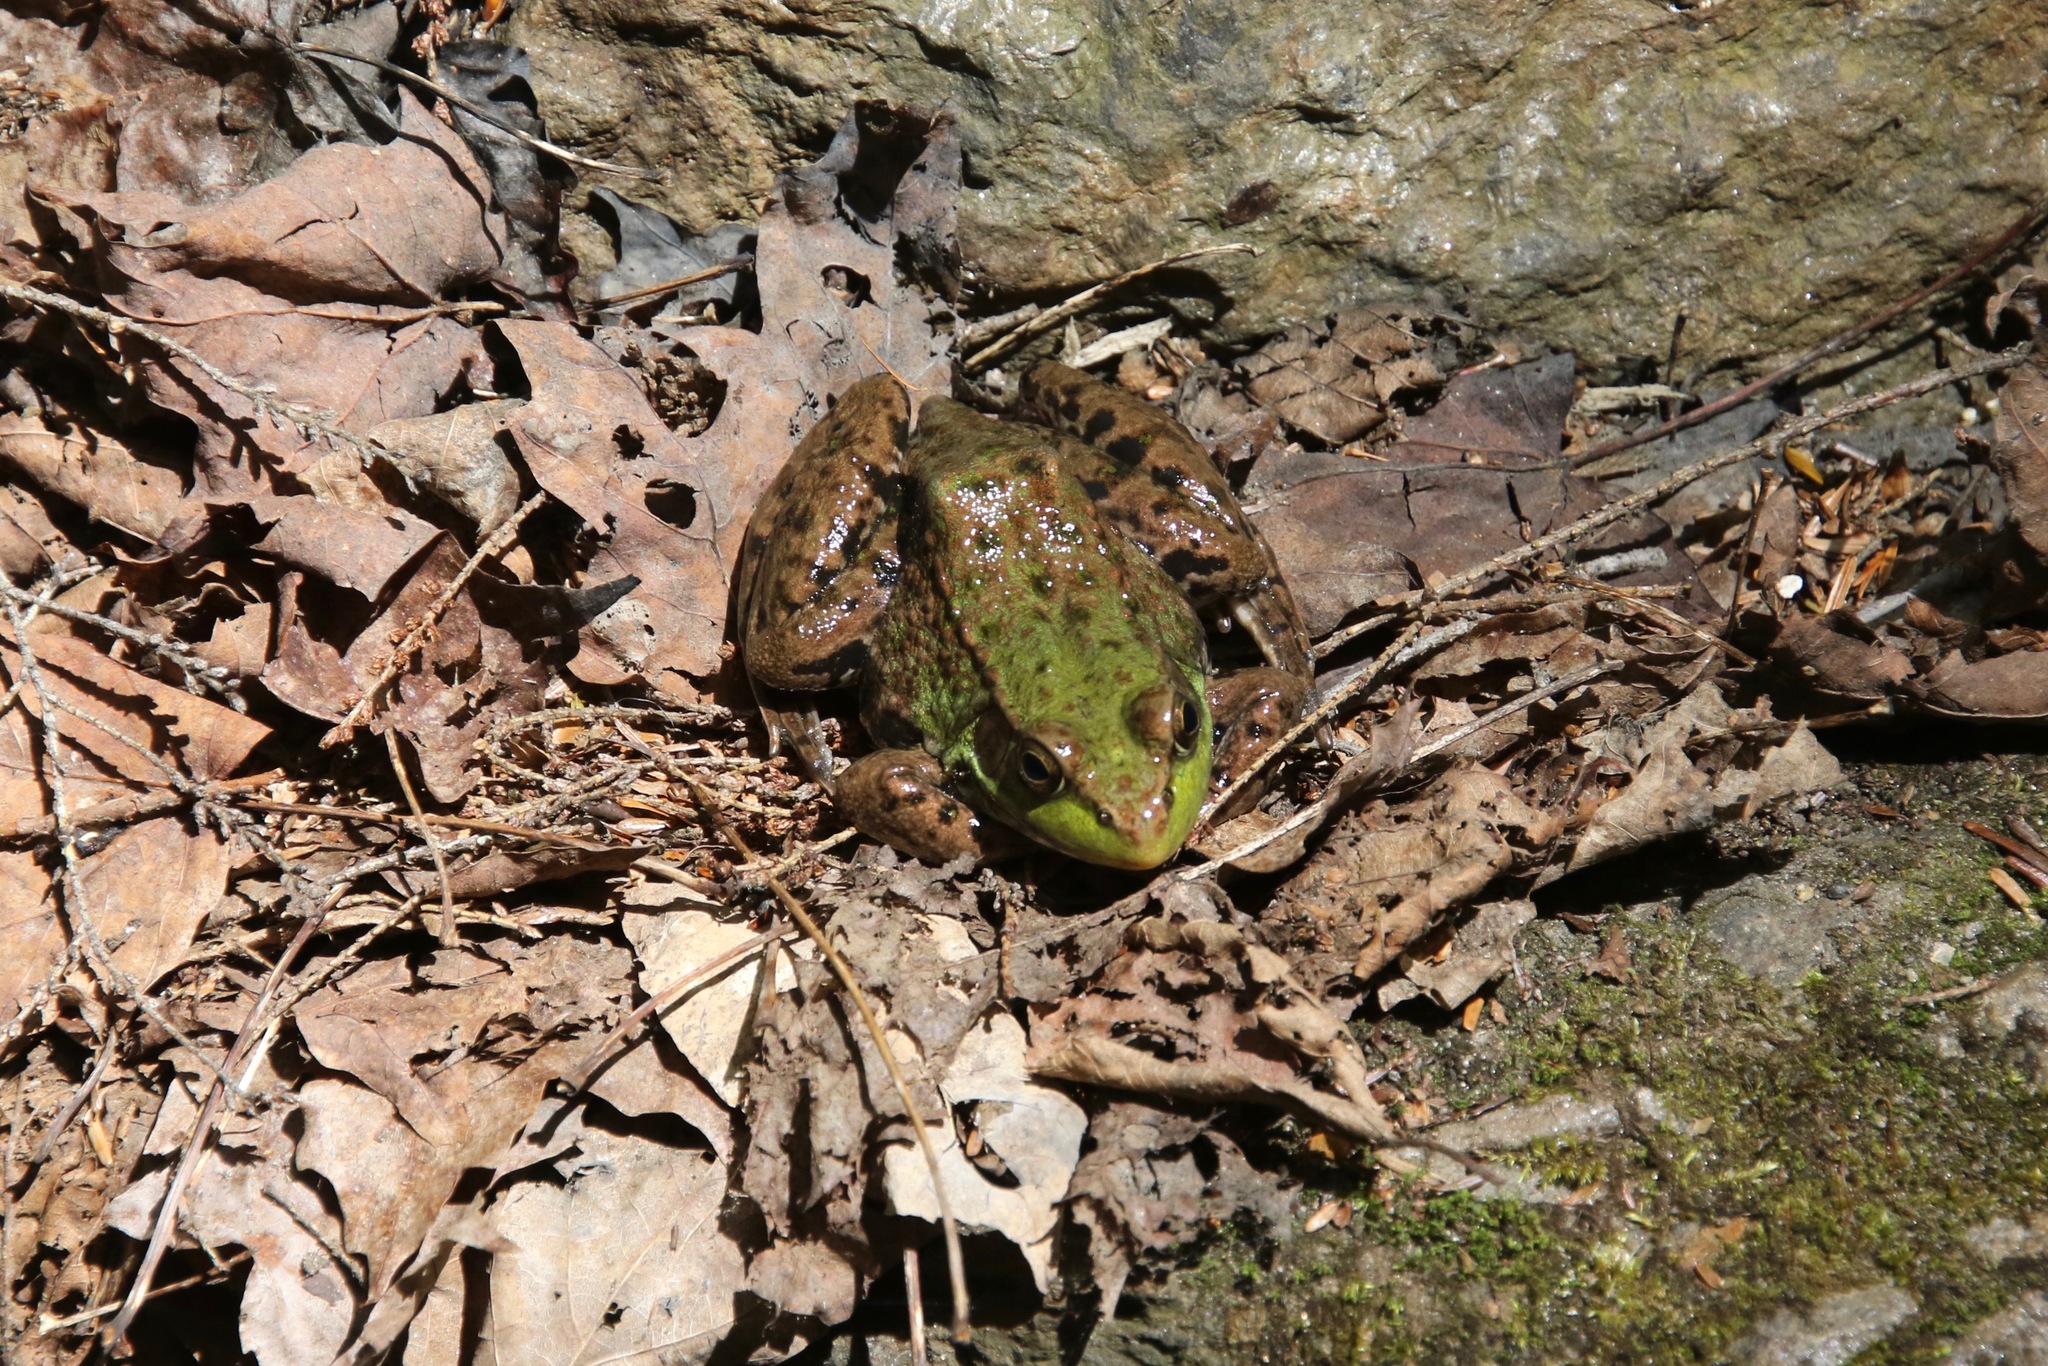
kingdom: Animalia
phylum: Chordata
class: Amphibia
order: Anura
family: Ranidae
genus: Lithobates
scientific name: Lithobates clamitans
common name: Green frog
